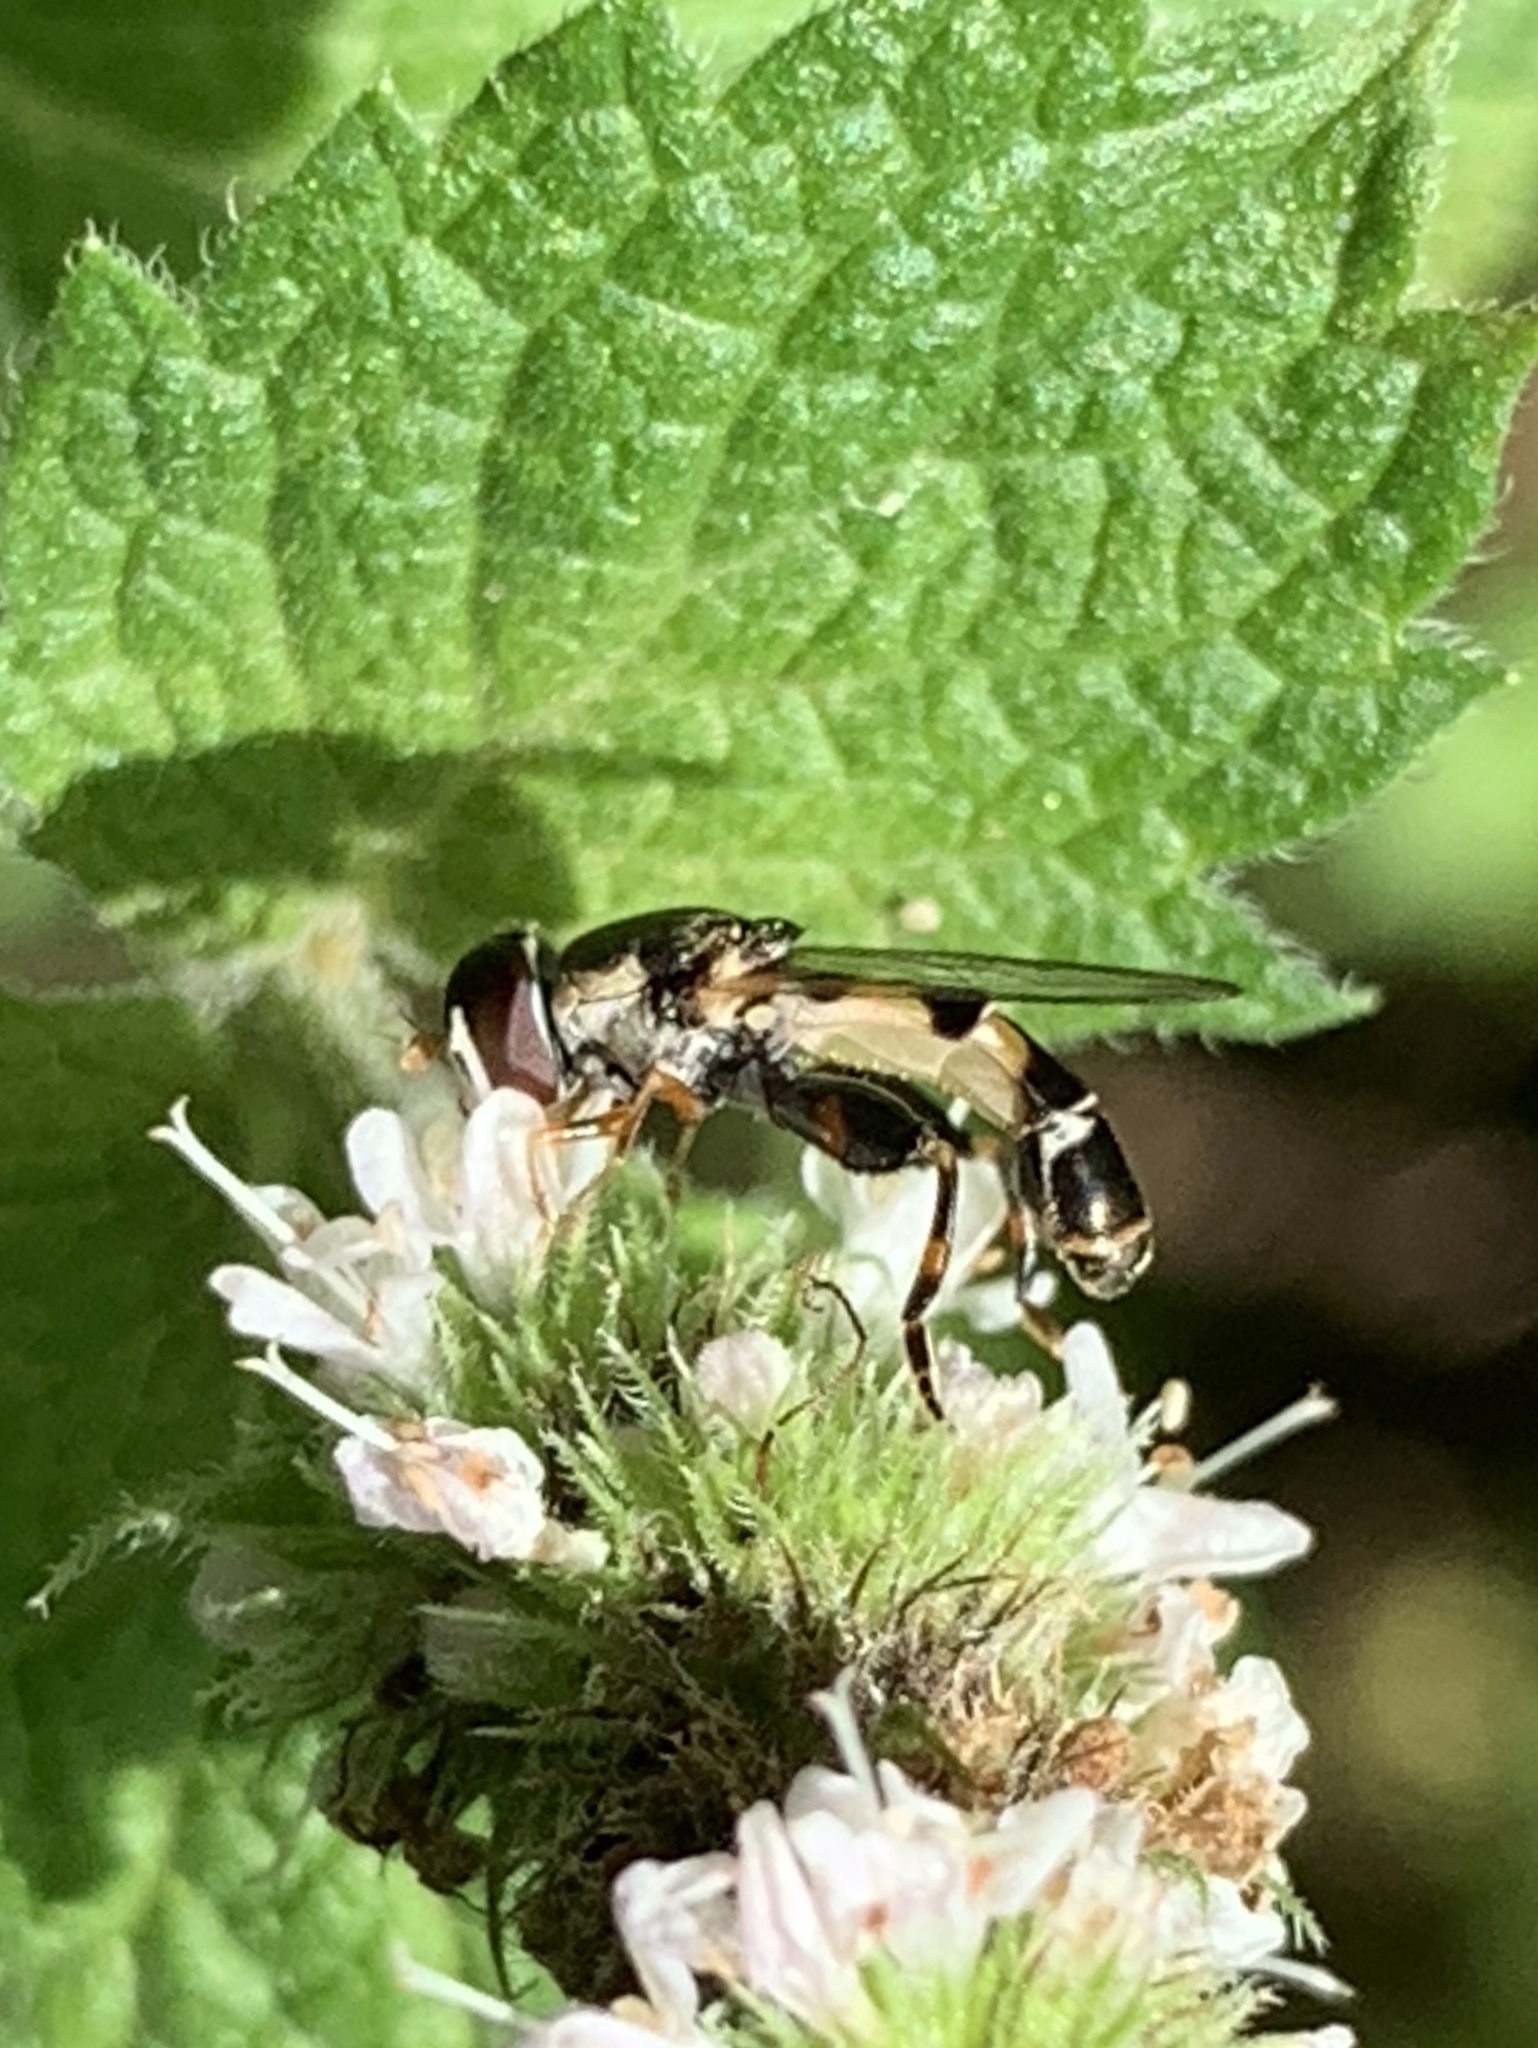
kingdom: Animalia
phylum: Arthropoda
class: Insecta
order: Diptera
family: Syrphidae
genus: Syritta
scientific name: Syritta pipiens
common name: Hover fly
